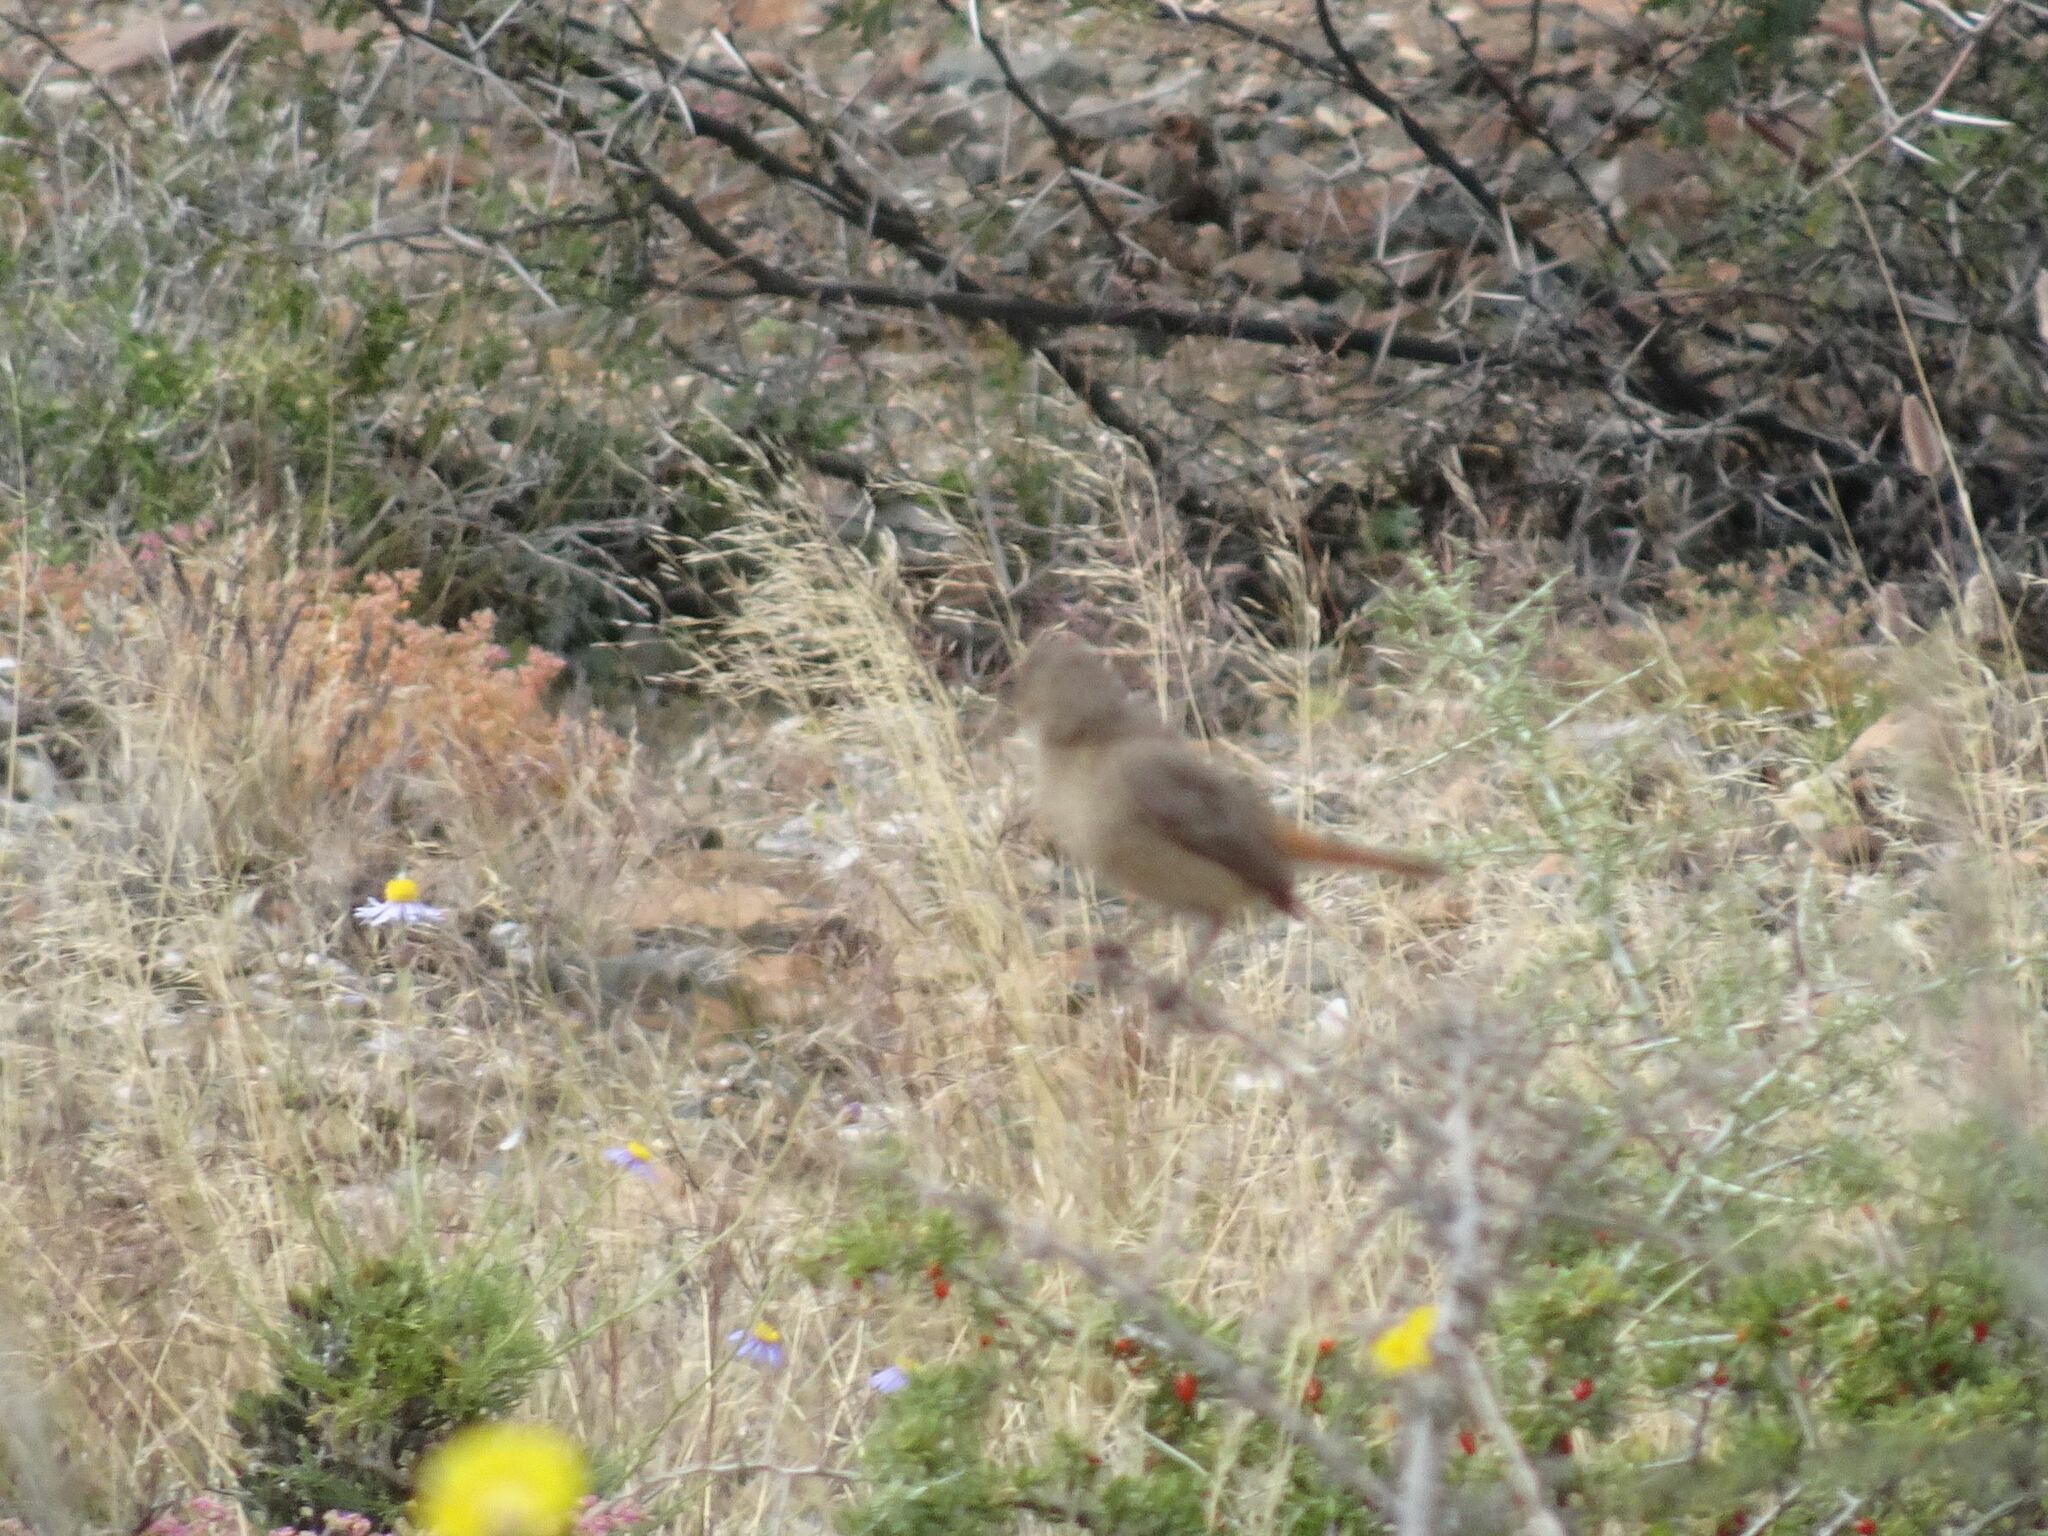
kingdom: Animalia
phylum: Chordata
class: Aves
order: Passeriformes
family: Muscicapidae
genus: Oenanthe
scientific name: Oenanthe familiaris
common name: Familiar chat
